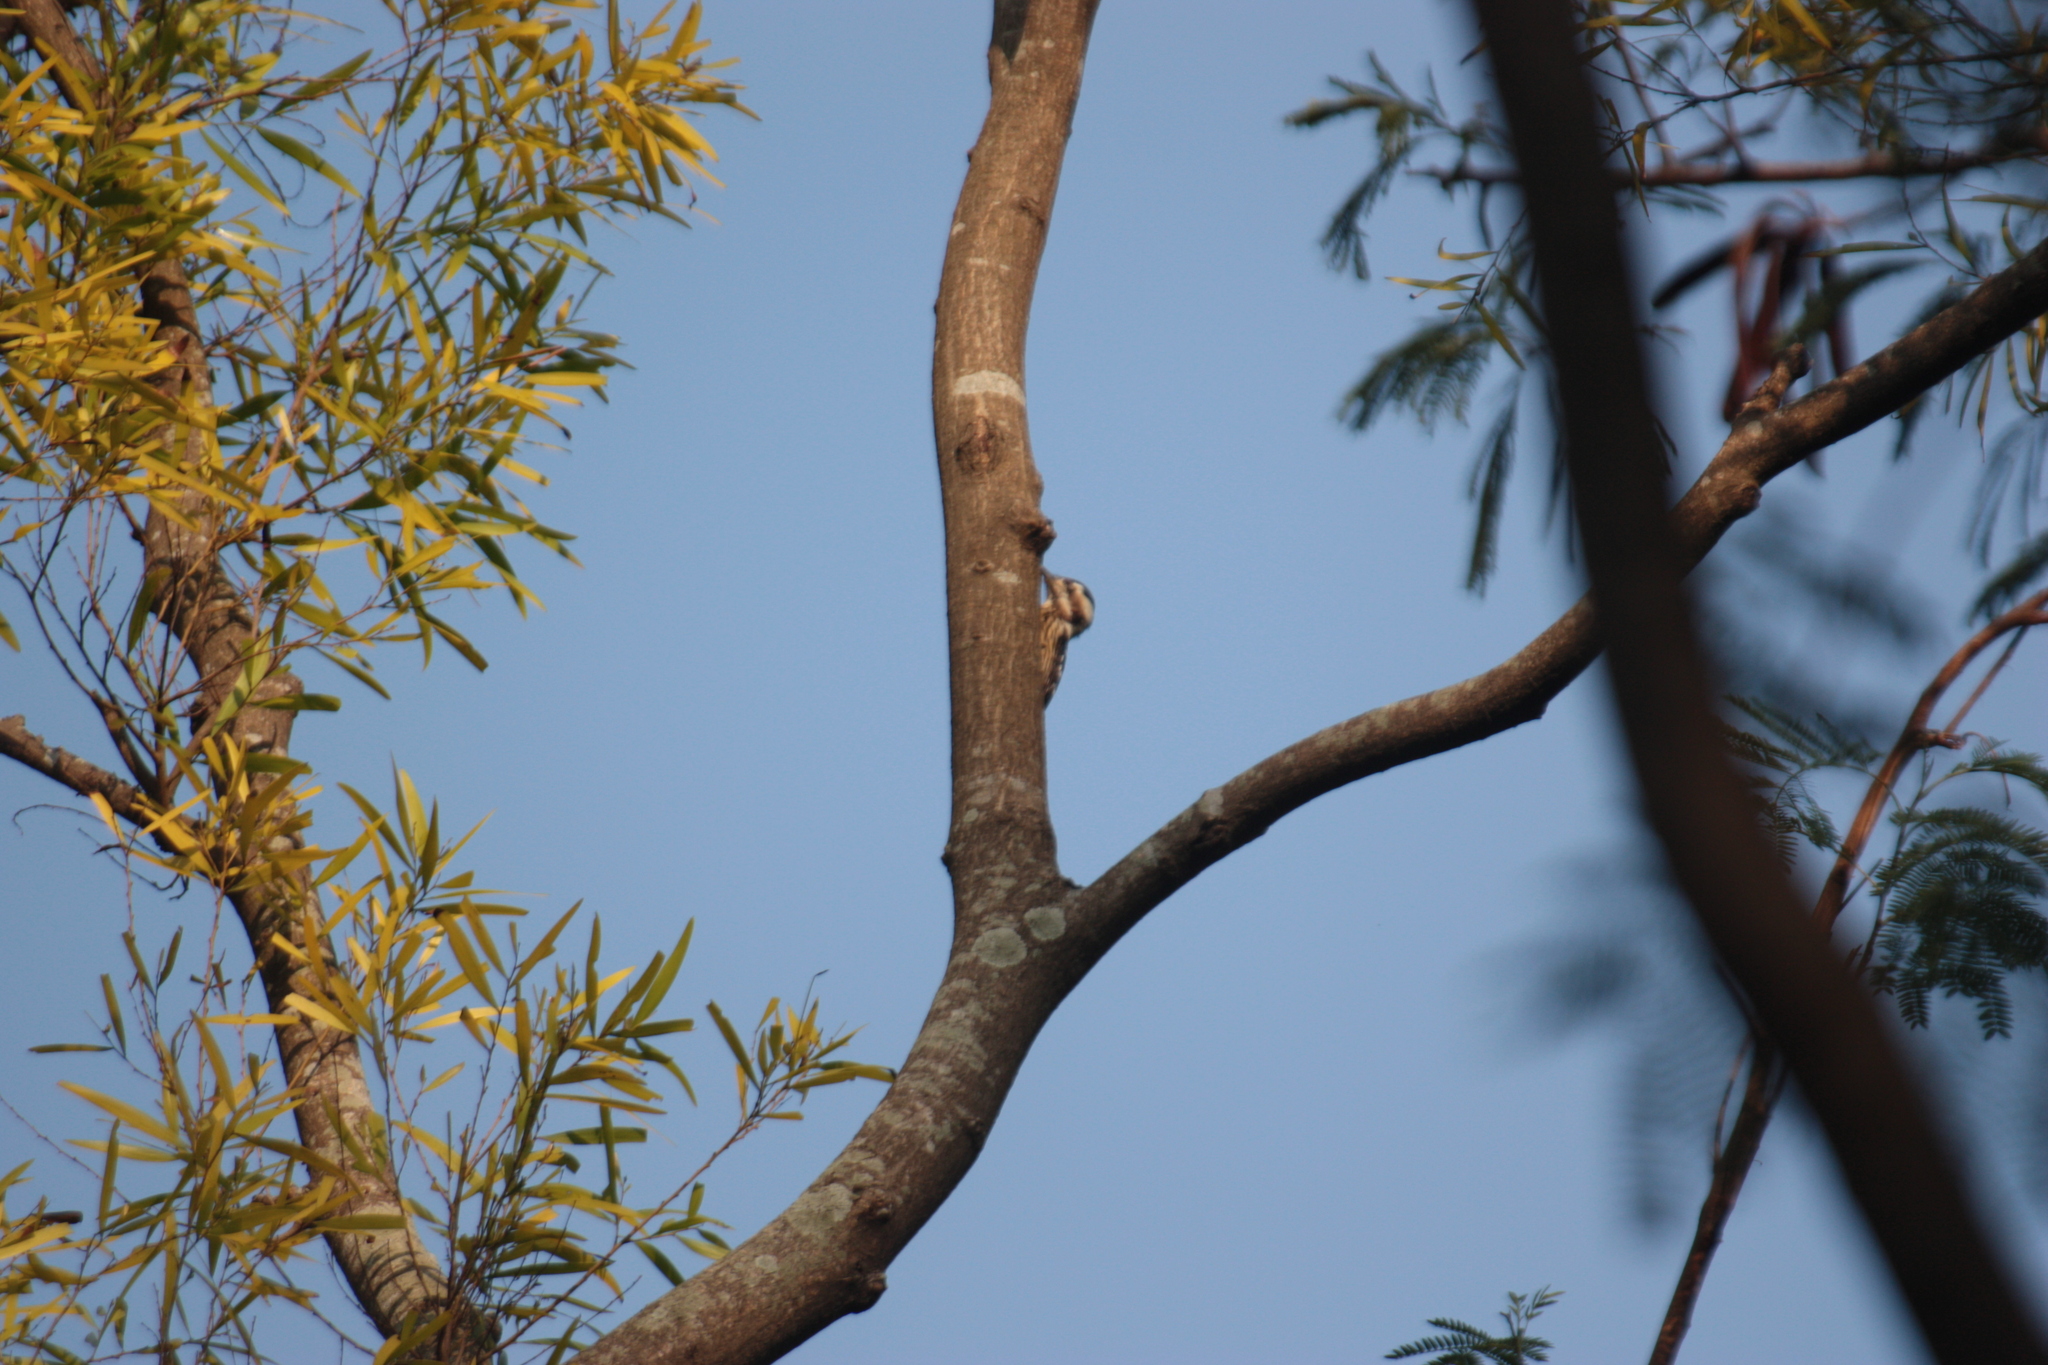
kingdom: Animalia
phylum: Chordata
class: Aves
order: Piciformes
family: Picidae
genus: Yungipicus
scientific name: Yungipicus canicapillus
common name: Grey-capped pygmy woodpecker
